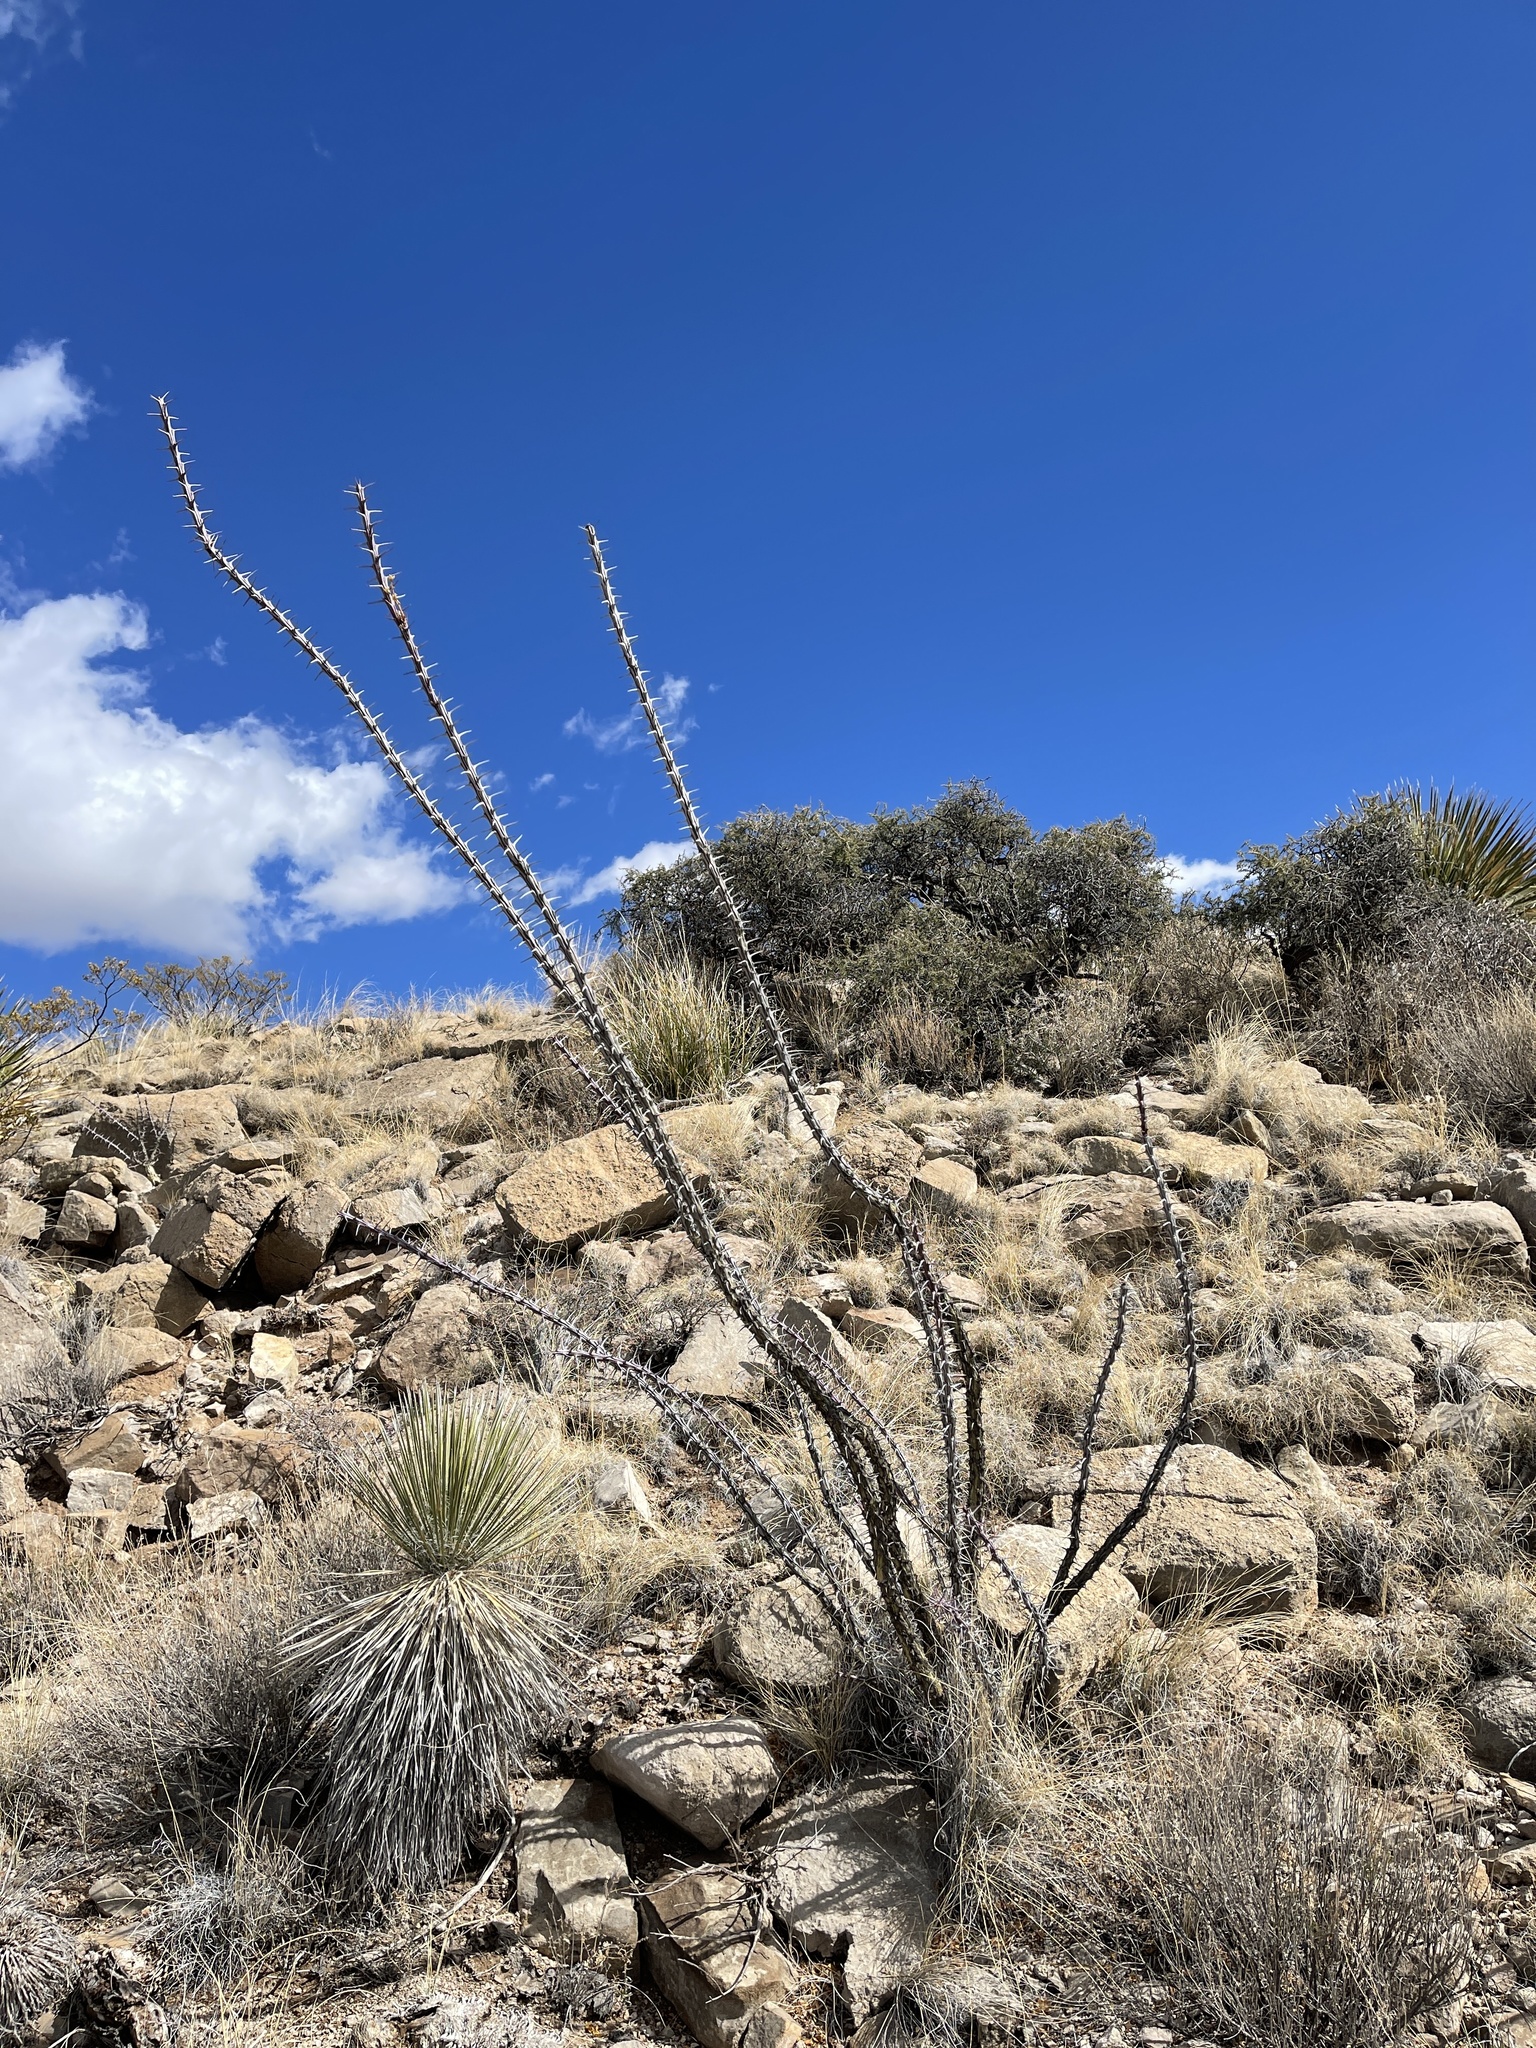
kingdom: Plantae
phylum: Tracheophyta
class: Magnoliopsida
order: Ericales
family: Fouquieriaceae
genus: Fouquieria
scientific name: Fouquieria splendens
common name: Vine-cactus
